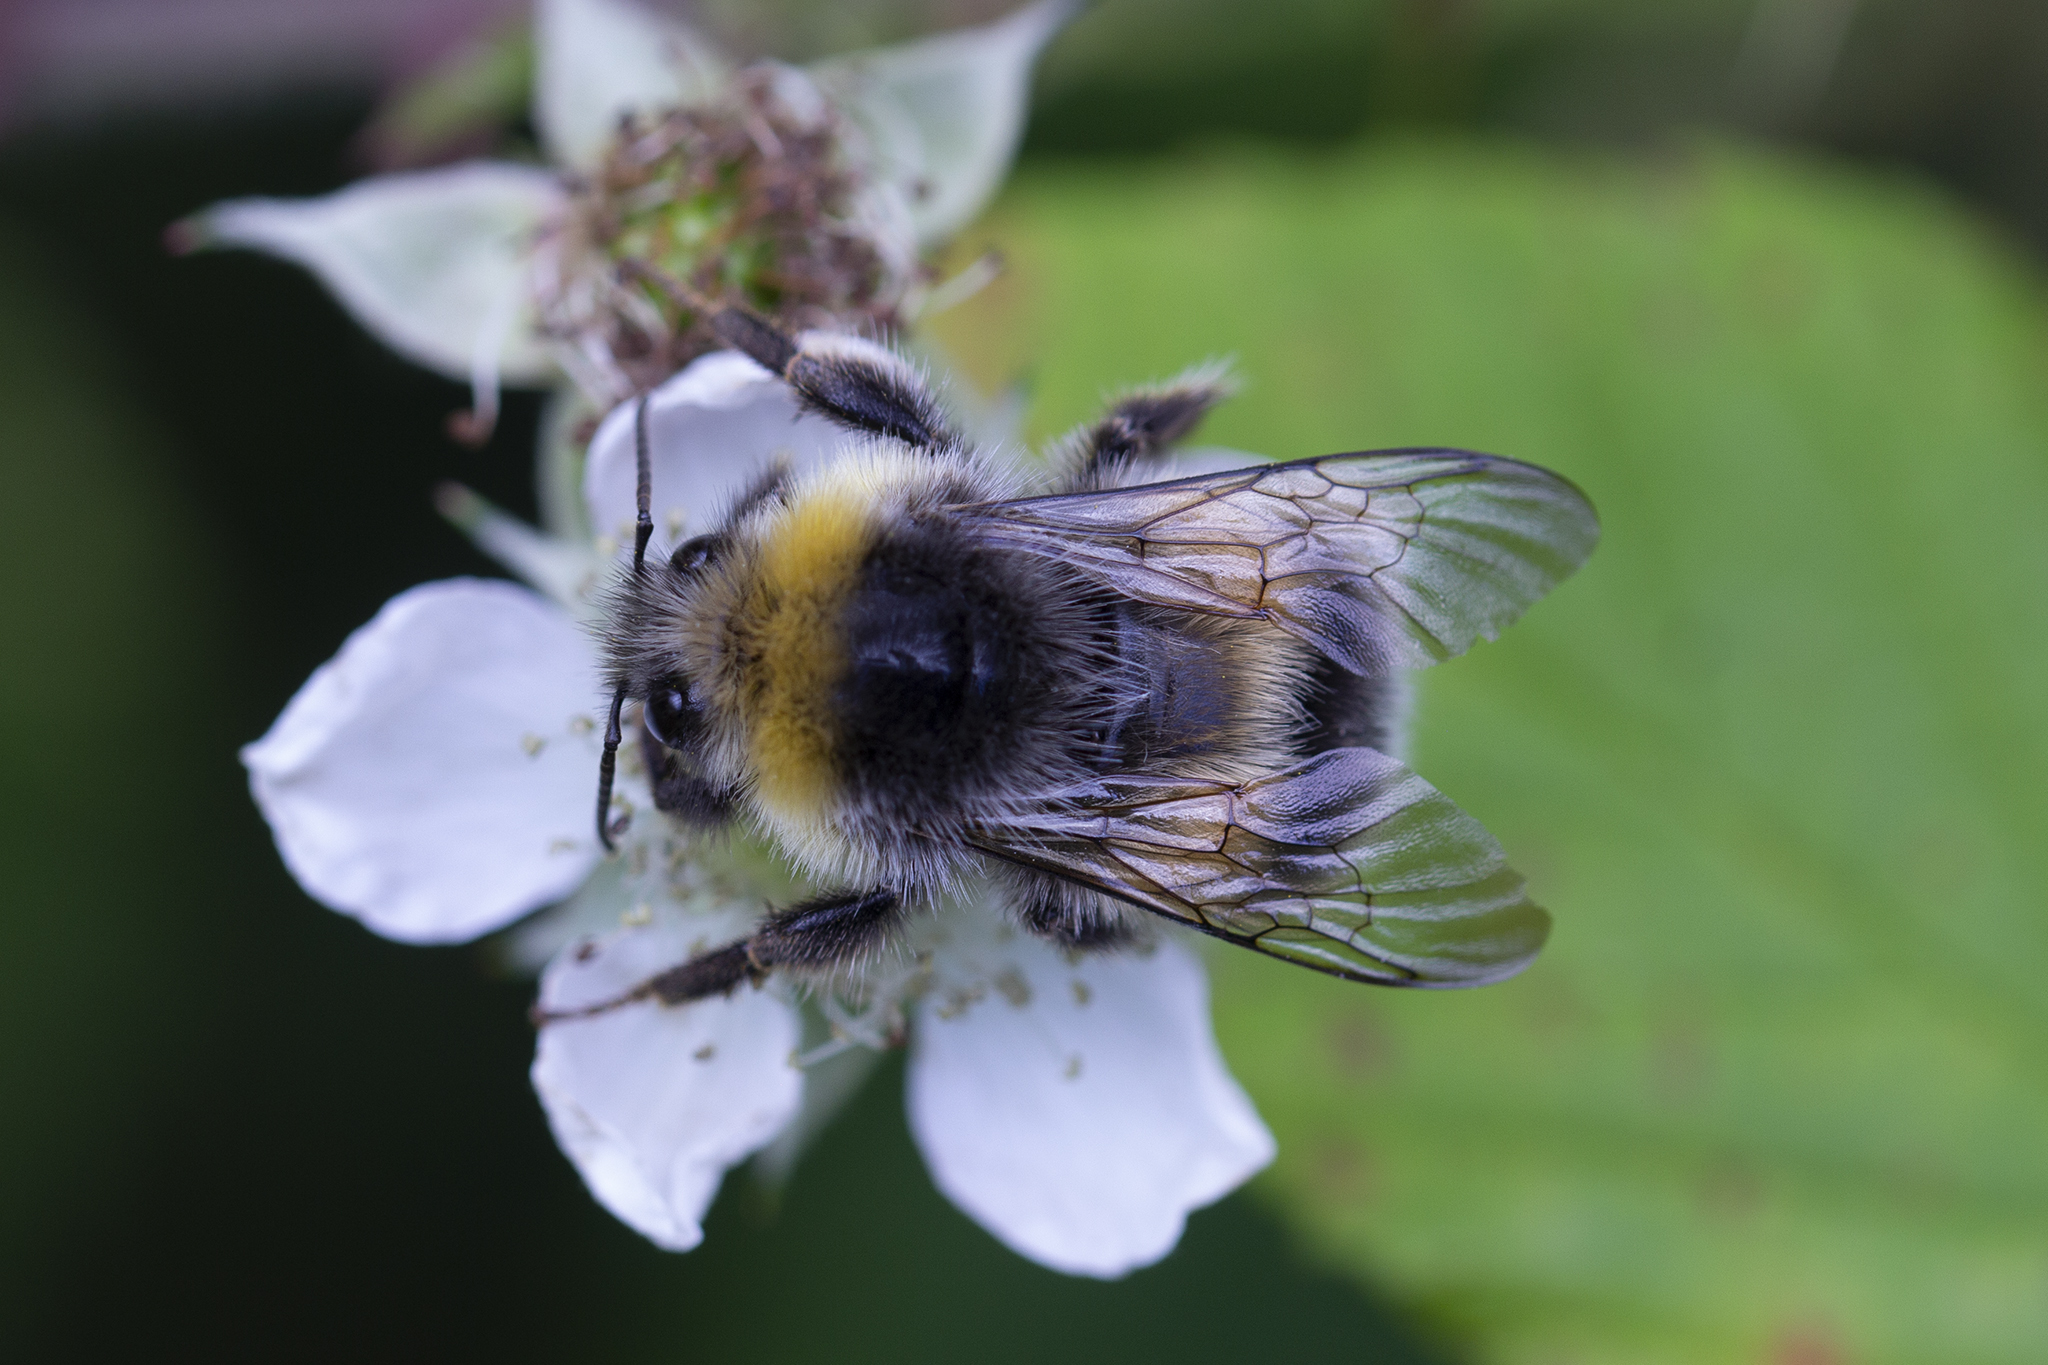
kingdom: Animalia
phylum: Arthropoda
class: Insecta
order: Hymenoptera
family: Apidae
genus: Bombus
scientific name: Bombus lucorum
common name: White-tailed bumblebee
